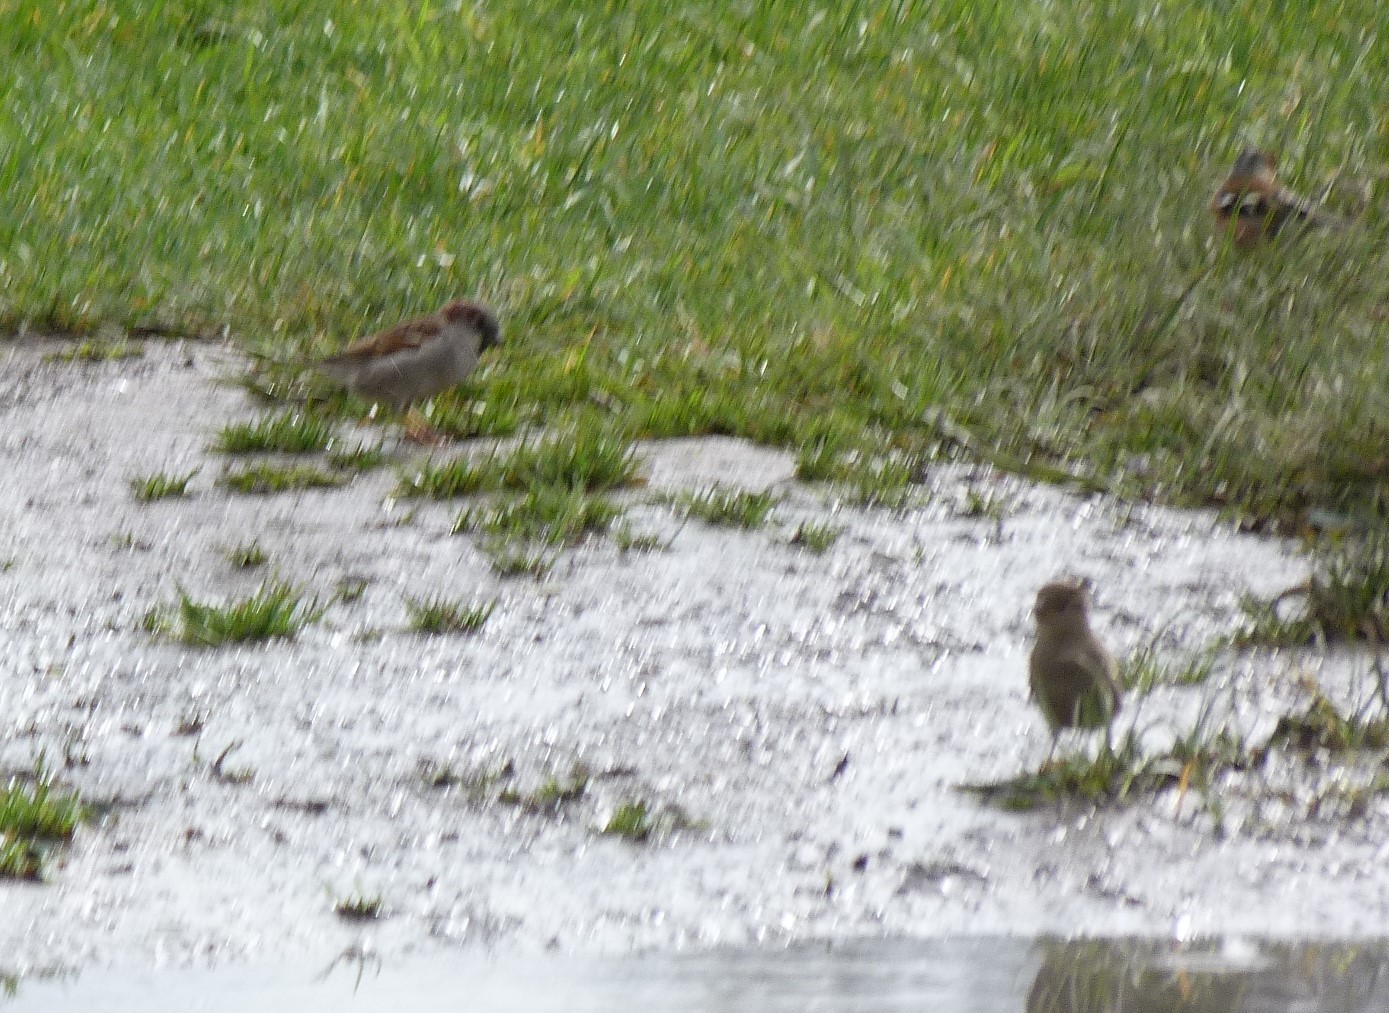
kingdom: Animalia
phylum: Chordata
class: Aves
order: Passeriformes
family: Passeridae
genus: Passer
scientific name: Passer domesticus
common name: House sparrow
